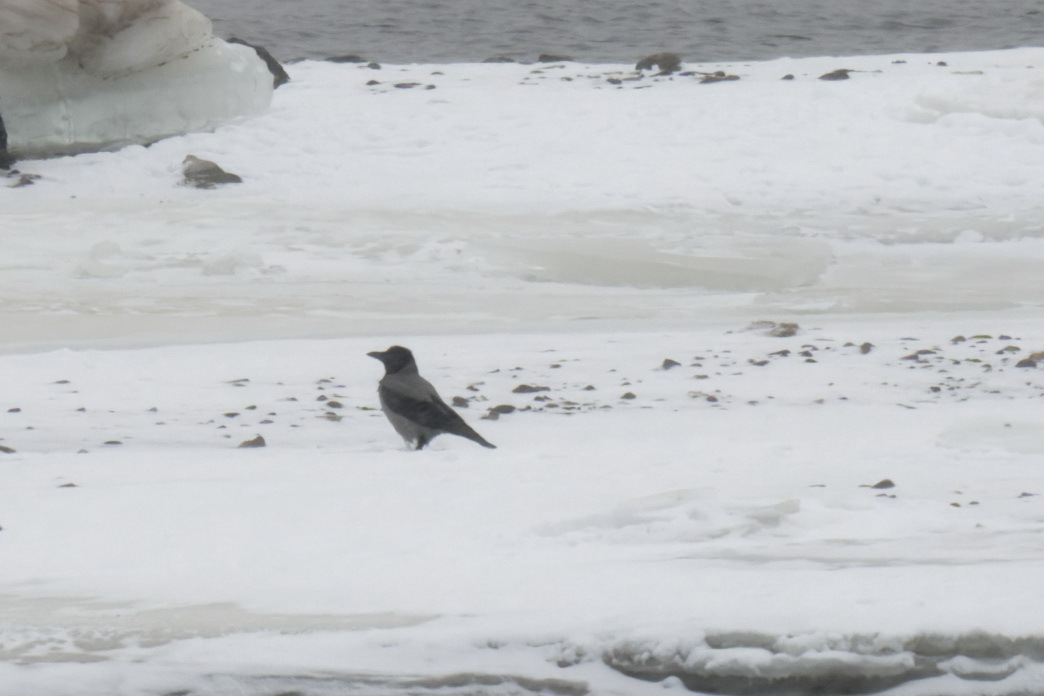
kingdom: Animalia
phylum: Chordata
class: Aves
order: Passeriformes
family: Corvidae
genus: Corvus
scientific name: Corvus cornix
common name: Hooded crow
